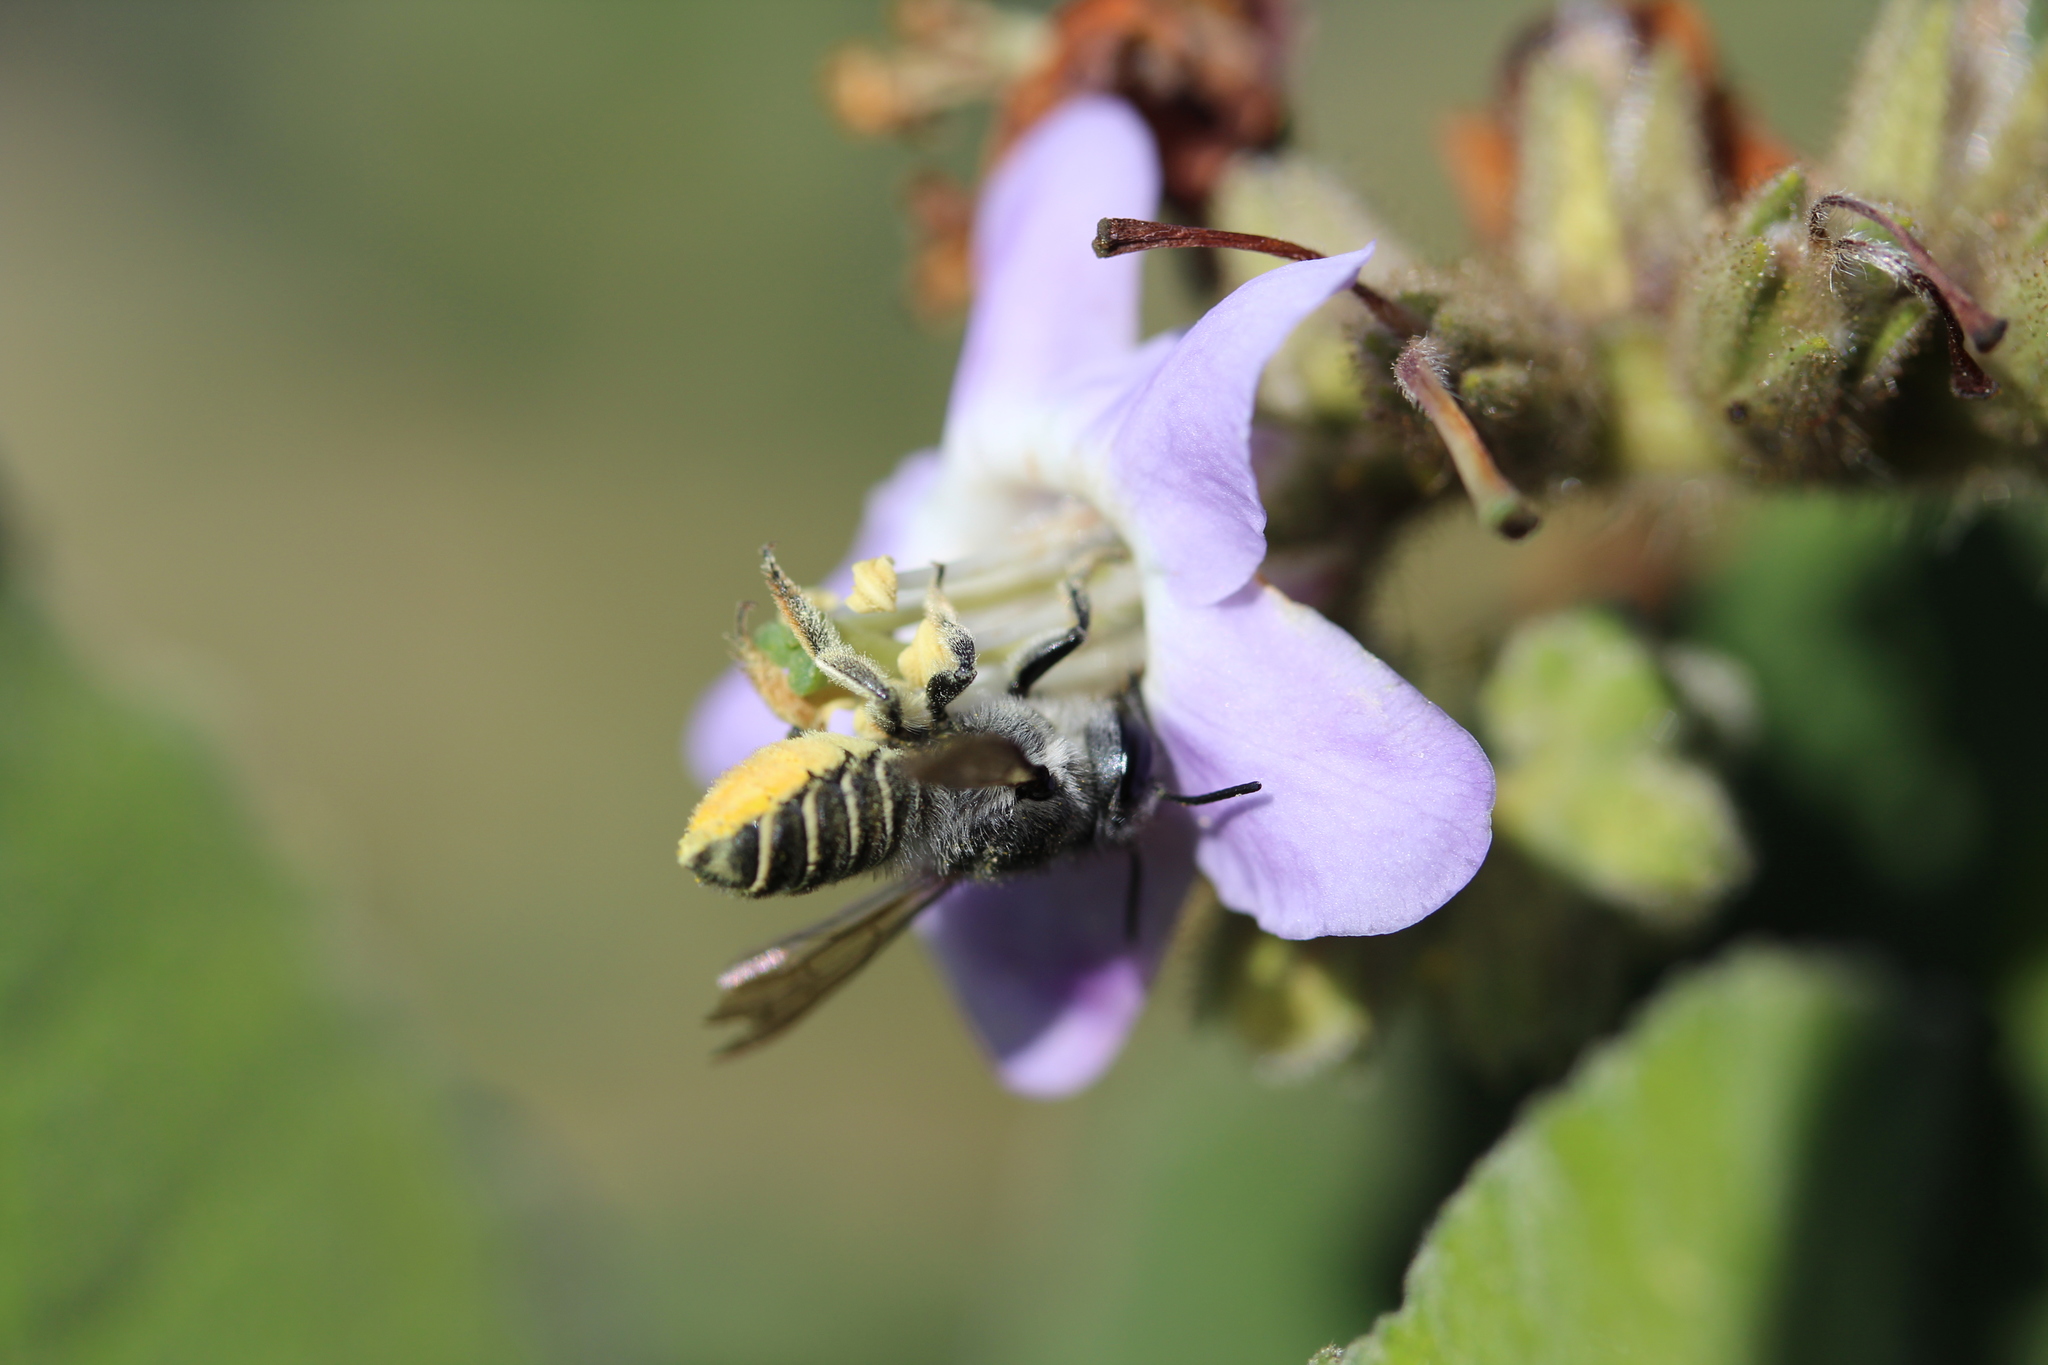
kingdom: Animalia
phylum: Arthropoda
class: Insecta
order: Hymenoptera
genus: Megachiloides
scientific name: Megachiloides
